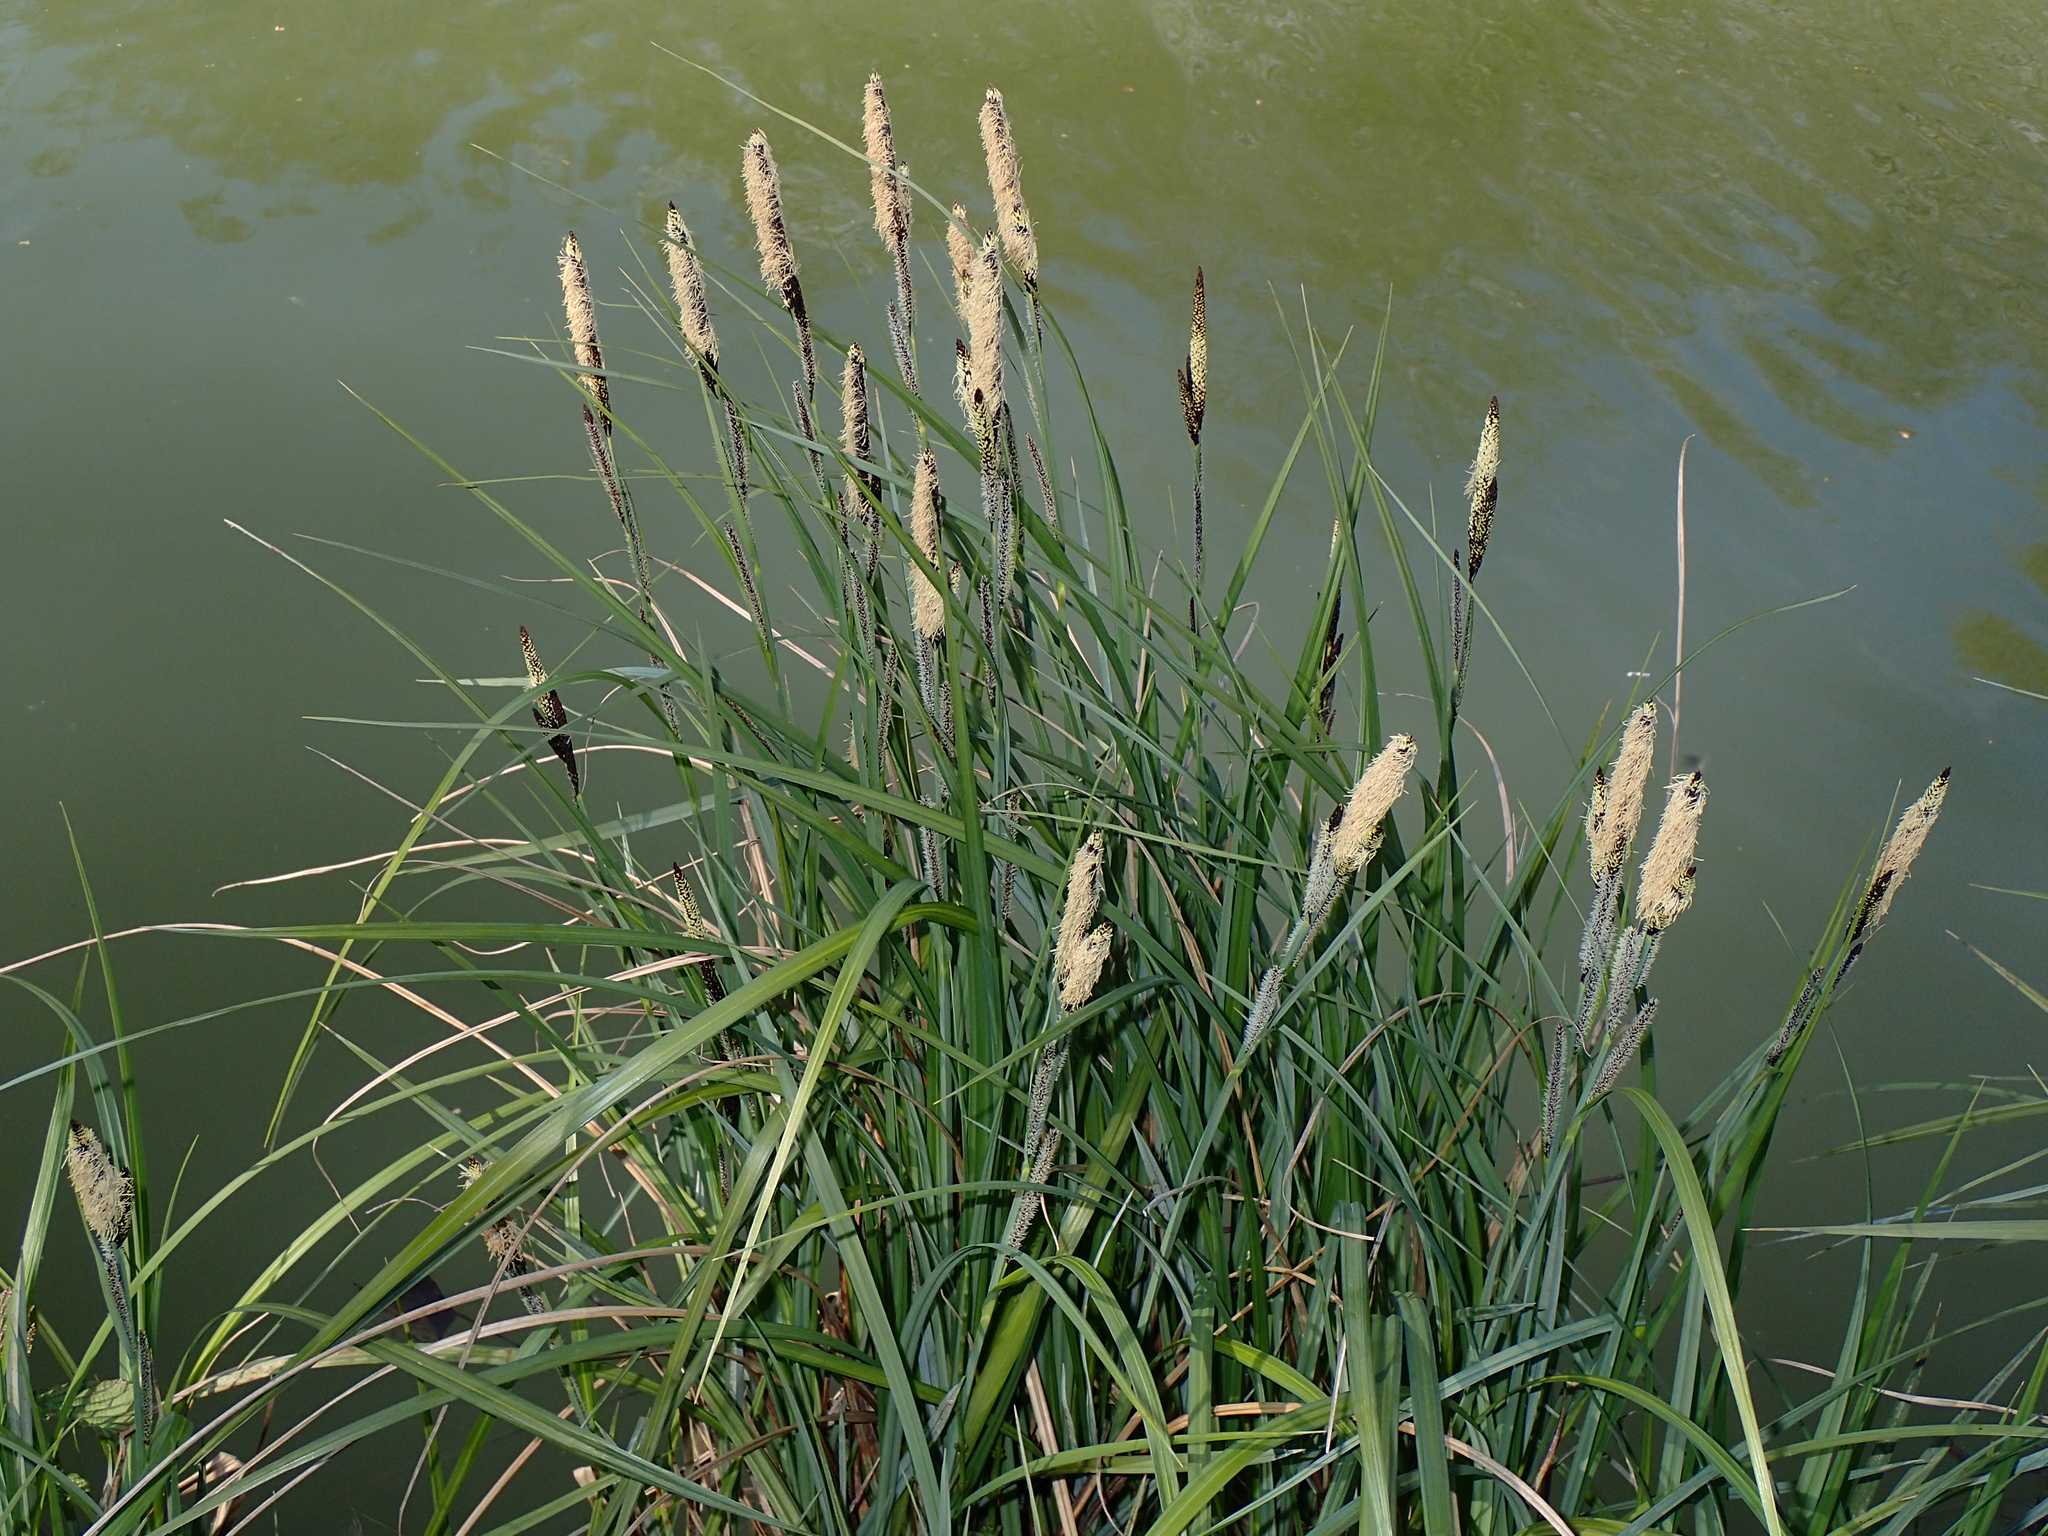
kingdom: Plantae
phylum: Tracheophyta
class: Liliopsida
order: Poales
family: Cyperaceae
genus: Carex
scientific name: Carex acutiformis
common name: Lesser pond-sedge
